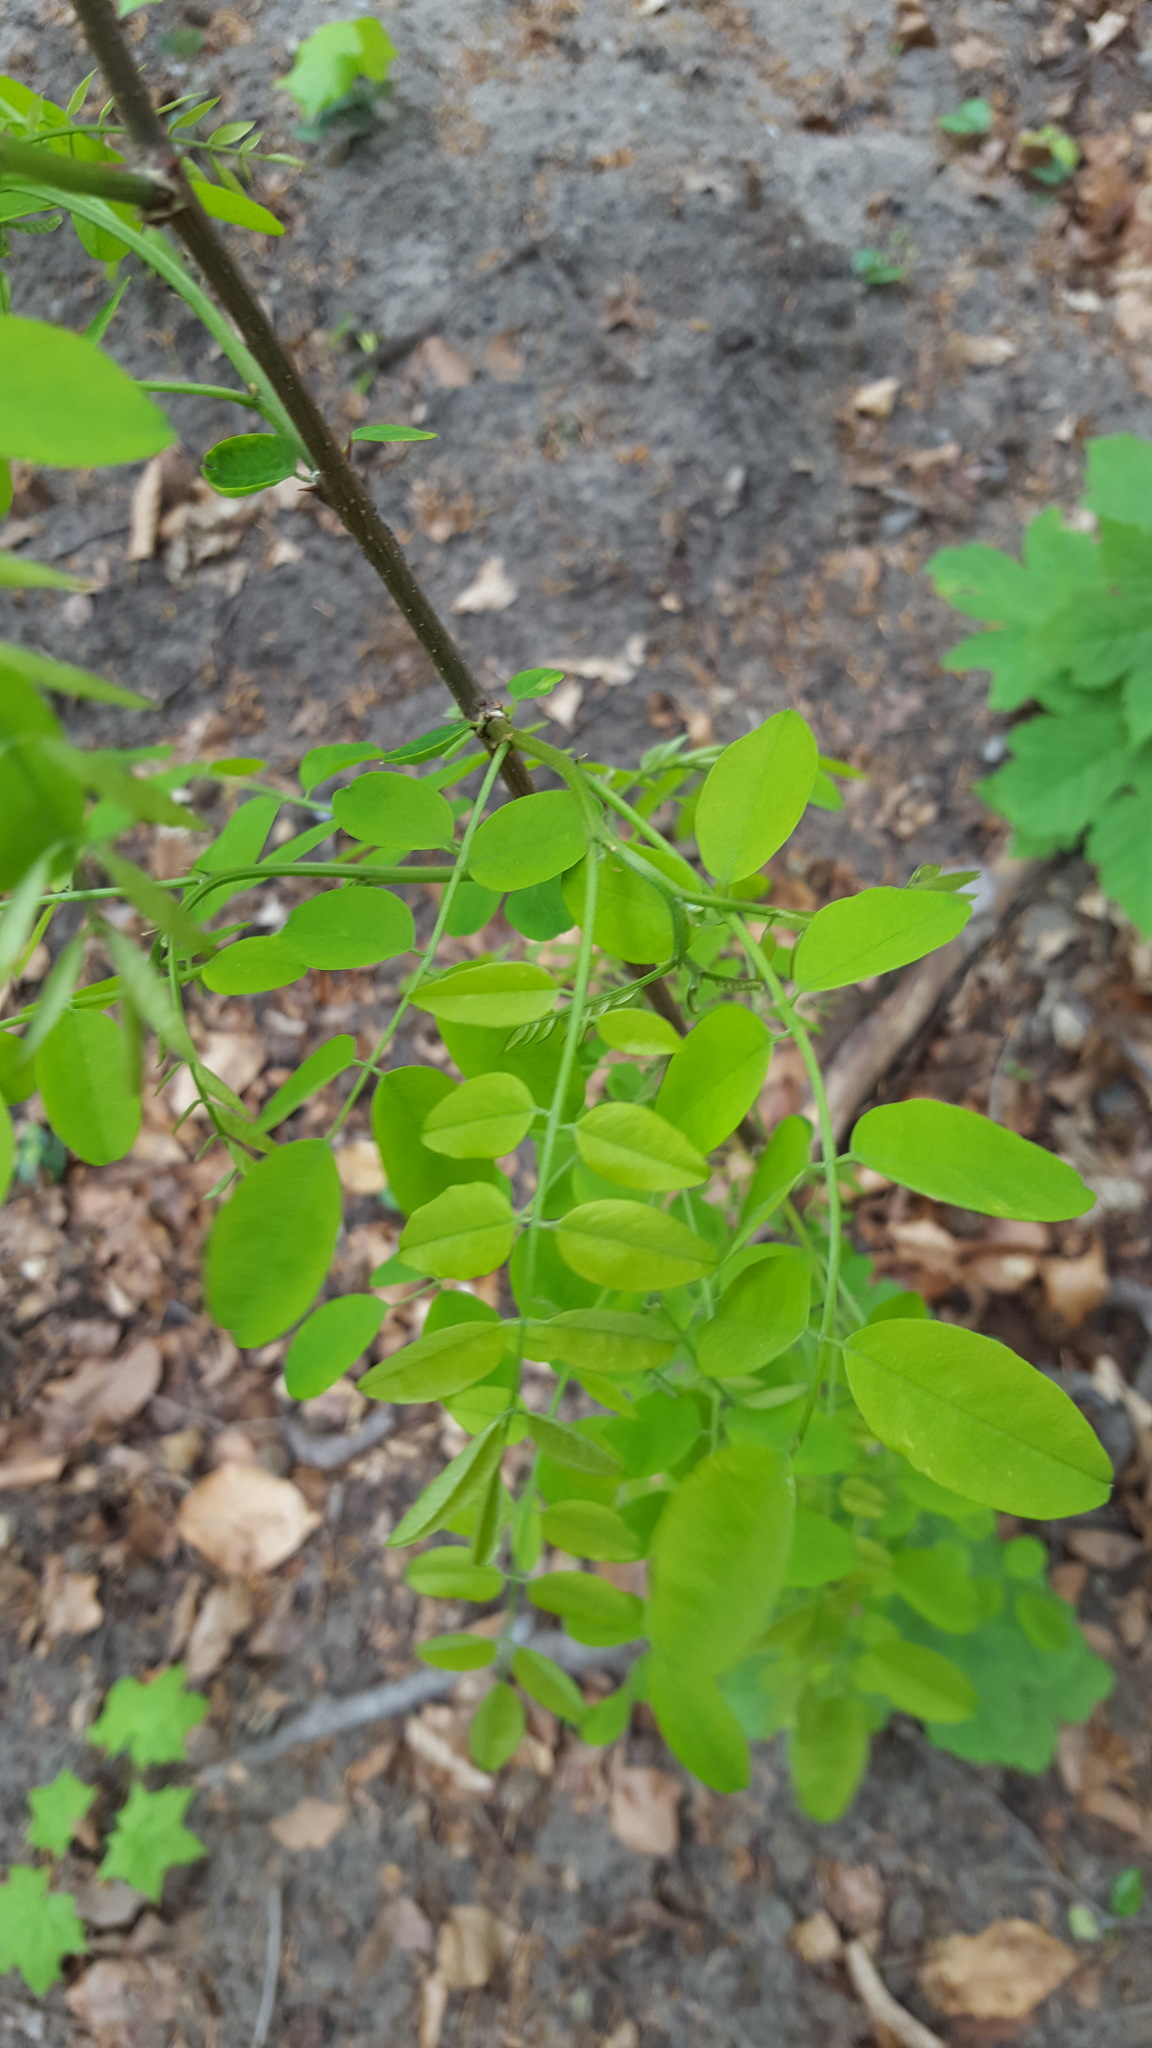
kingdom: Plantae
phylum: Tracheophyta
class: Magnoliopsida
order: Fabales
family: Fabaceae
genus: Robinia
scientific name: Robinia pseudoacacia
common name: Black locust
